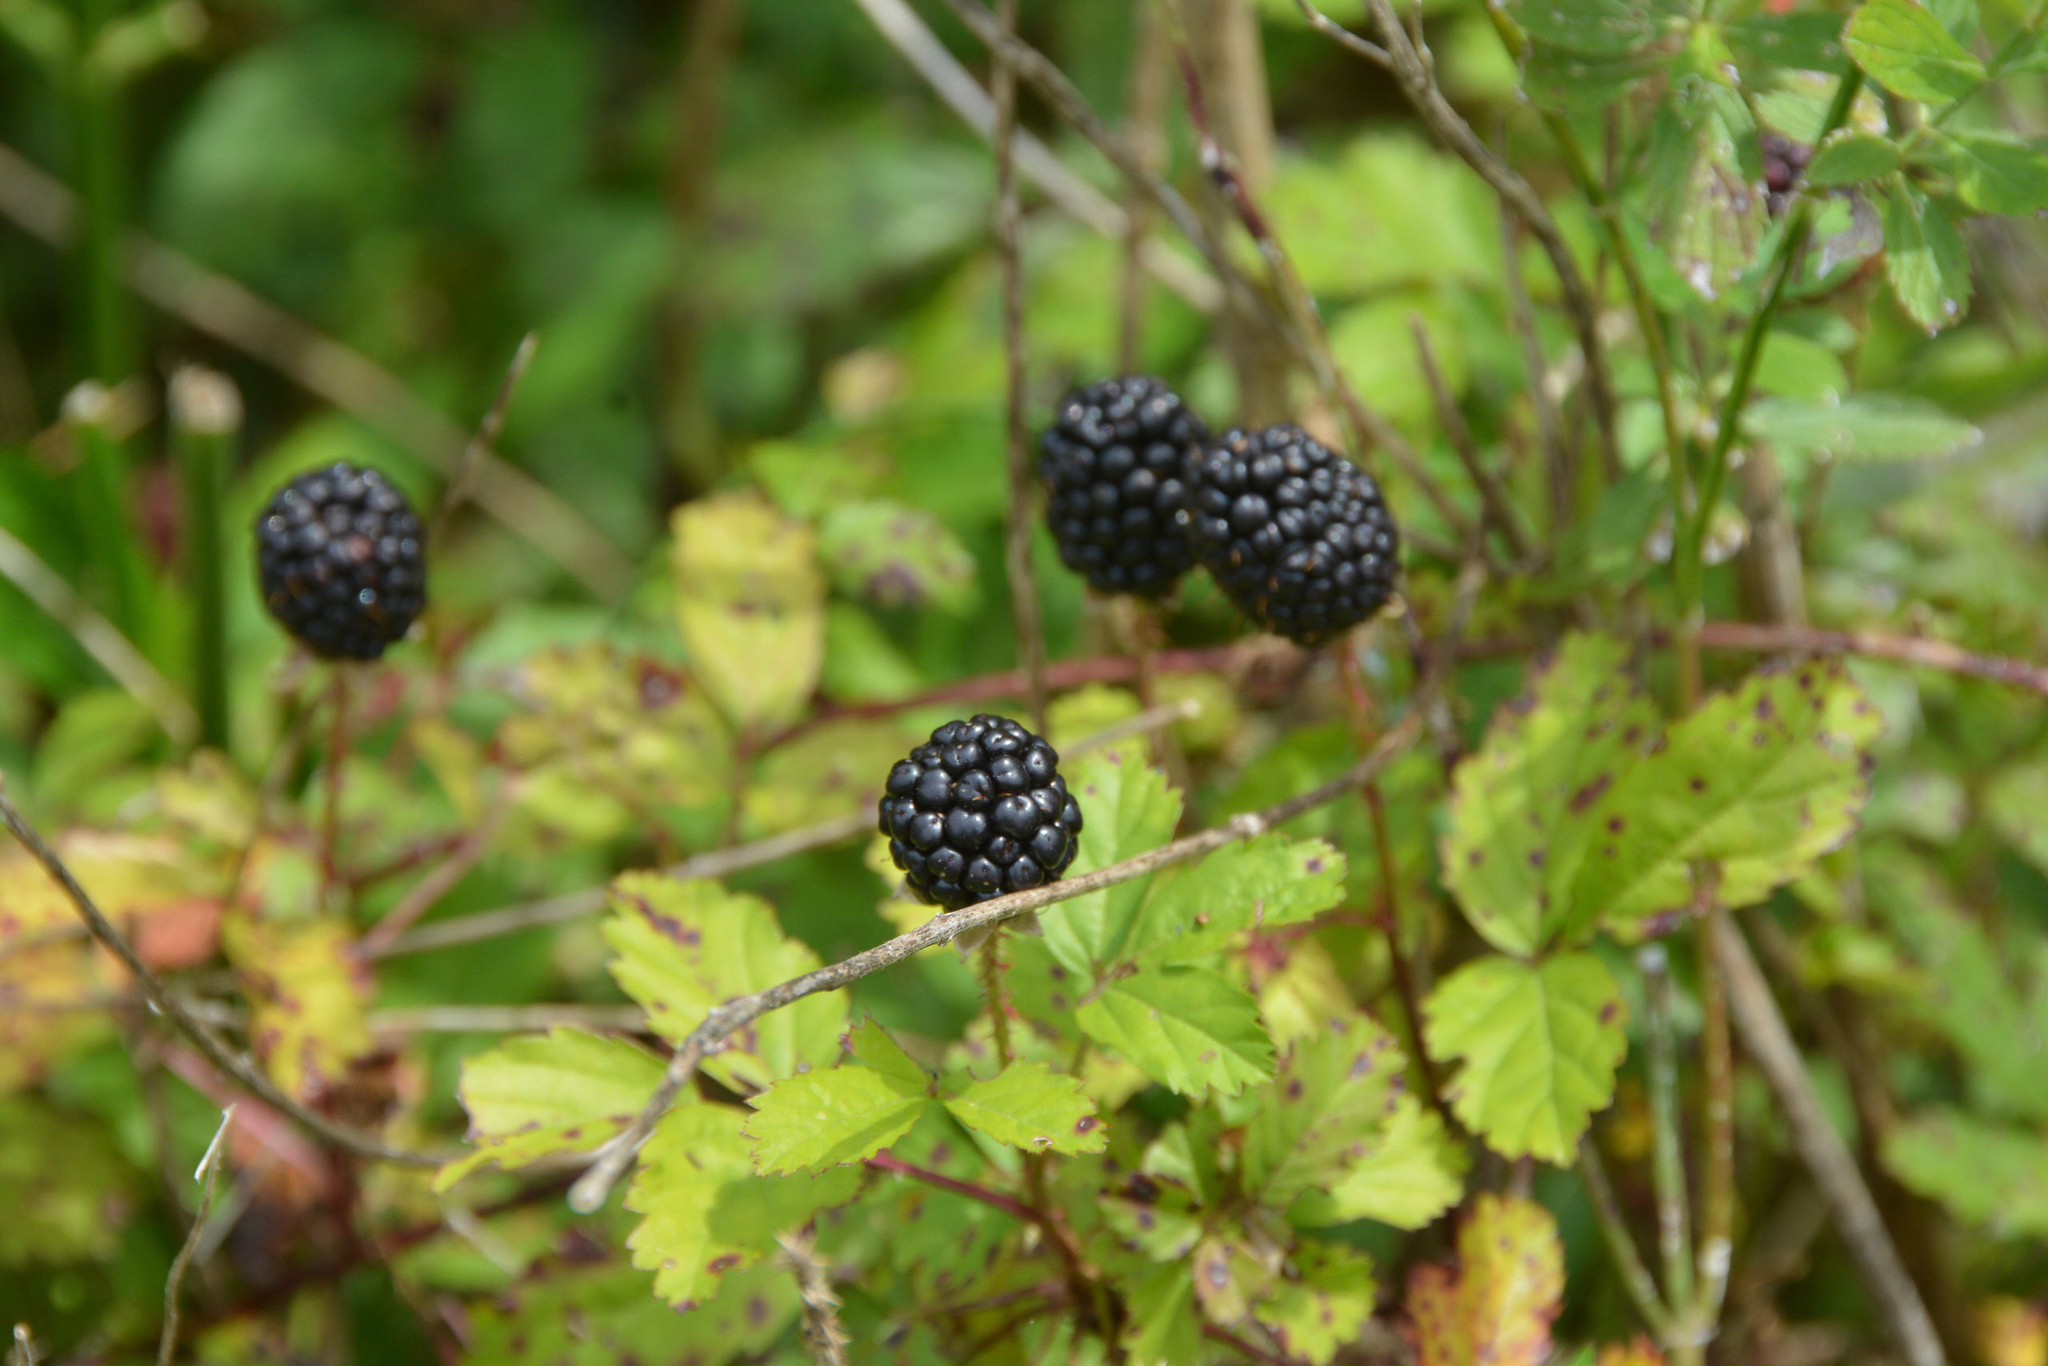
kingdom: Plantae
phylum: Tracheophyta
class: Magnoliopsida
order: Rosales
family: Rosaceae
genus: Rubus
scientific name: Rubus trivialis
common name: Southern dewberry
